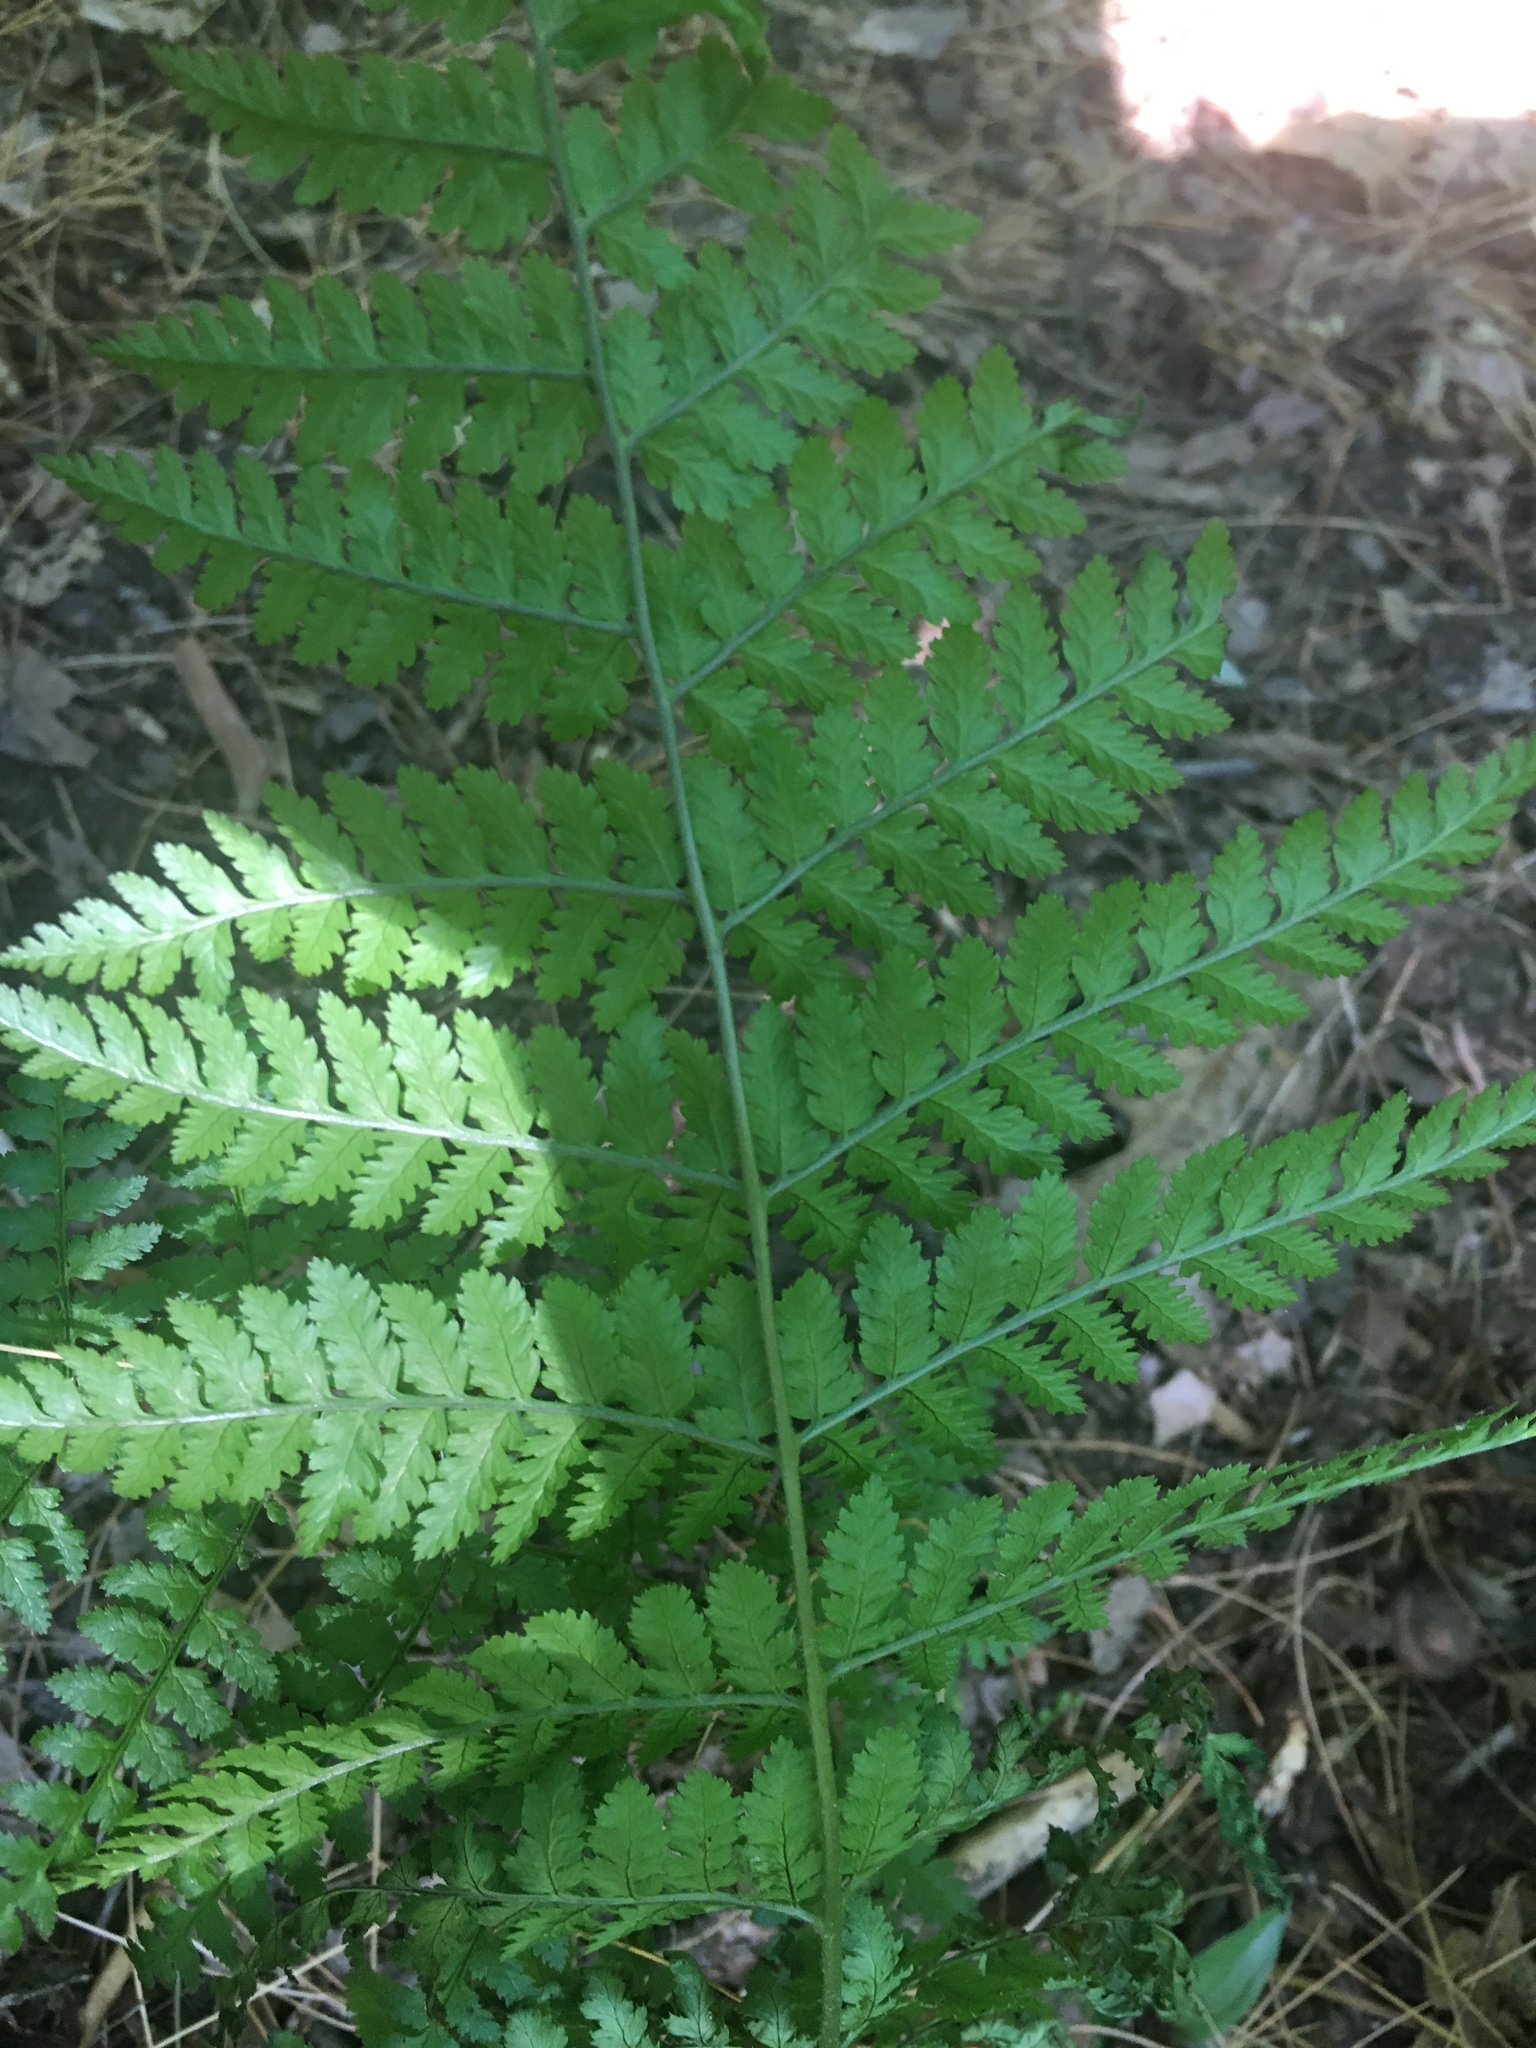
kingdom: Plantae
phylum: Tracheophyta
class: Polypodiopsida
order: Polypodiales
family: Dryopteridaceae
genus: Dryopteris
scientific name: Dryopteris carthusiana
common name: Narrow buckler-fern
